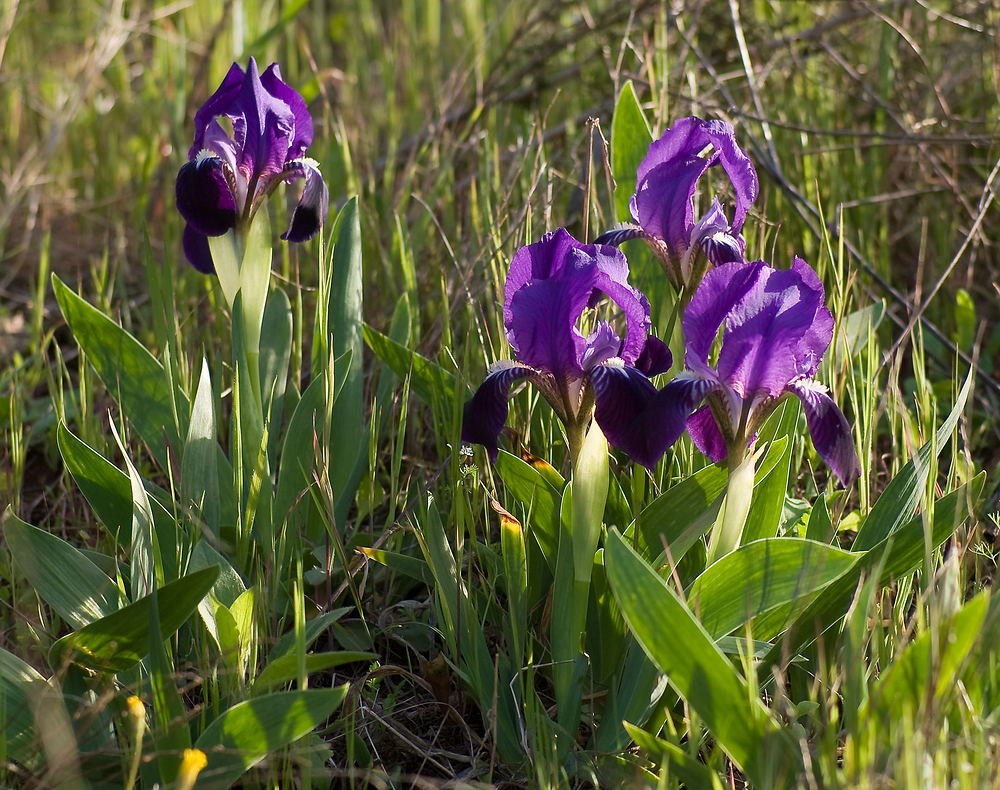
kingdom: Plantae
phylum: Tracheophyta
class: Liliopsida
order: Asparagales
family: Iridaceae
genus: Iris
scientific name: Iris lutescens
